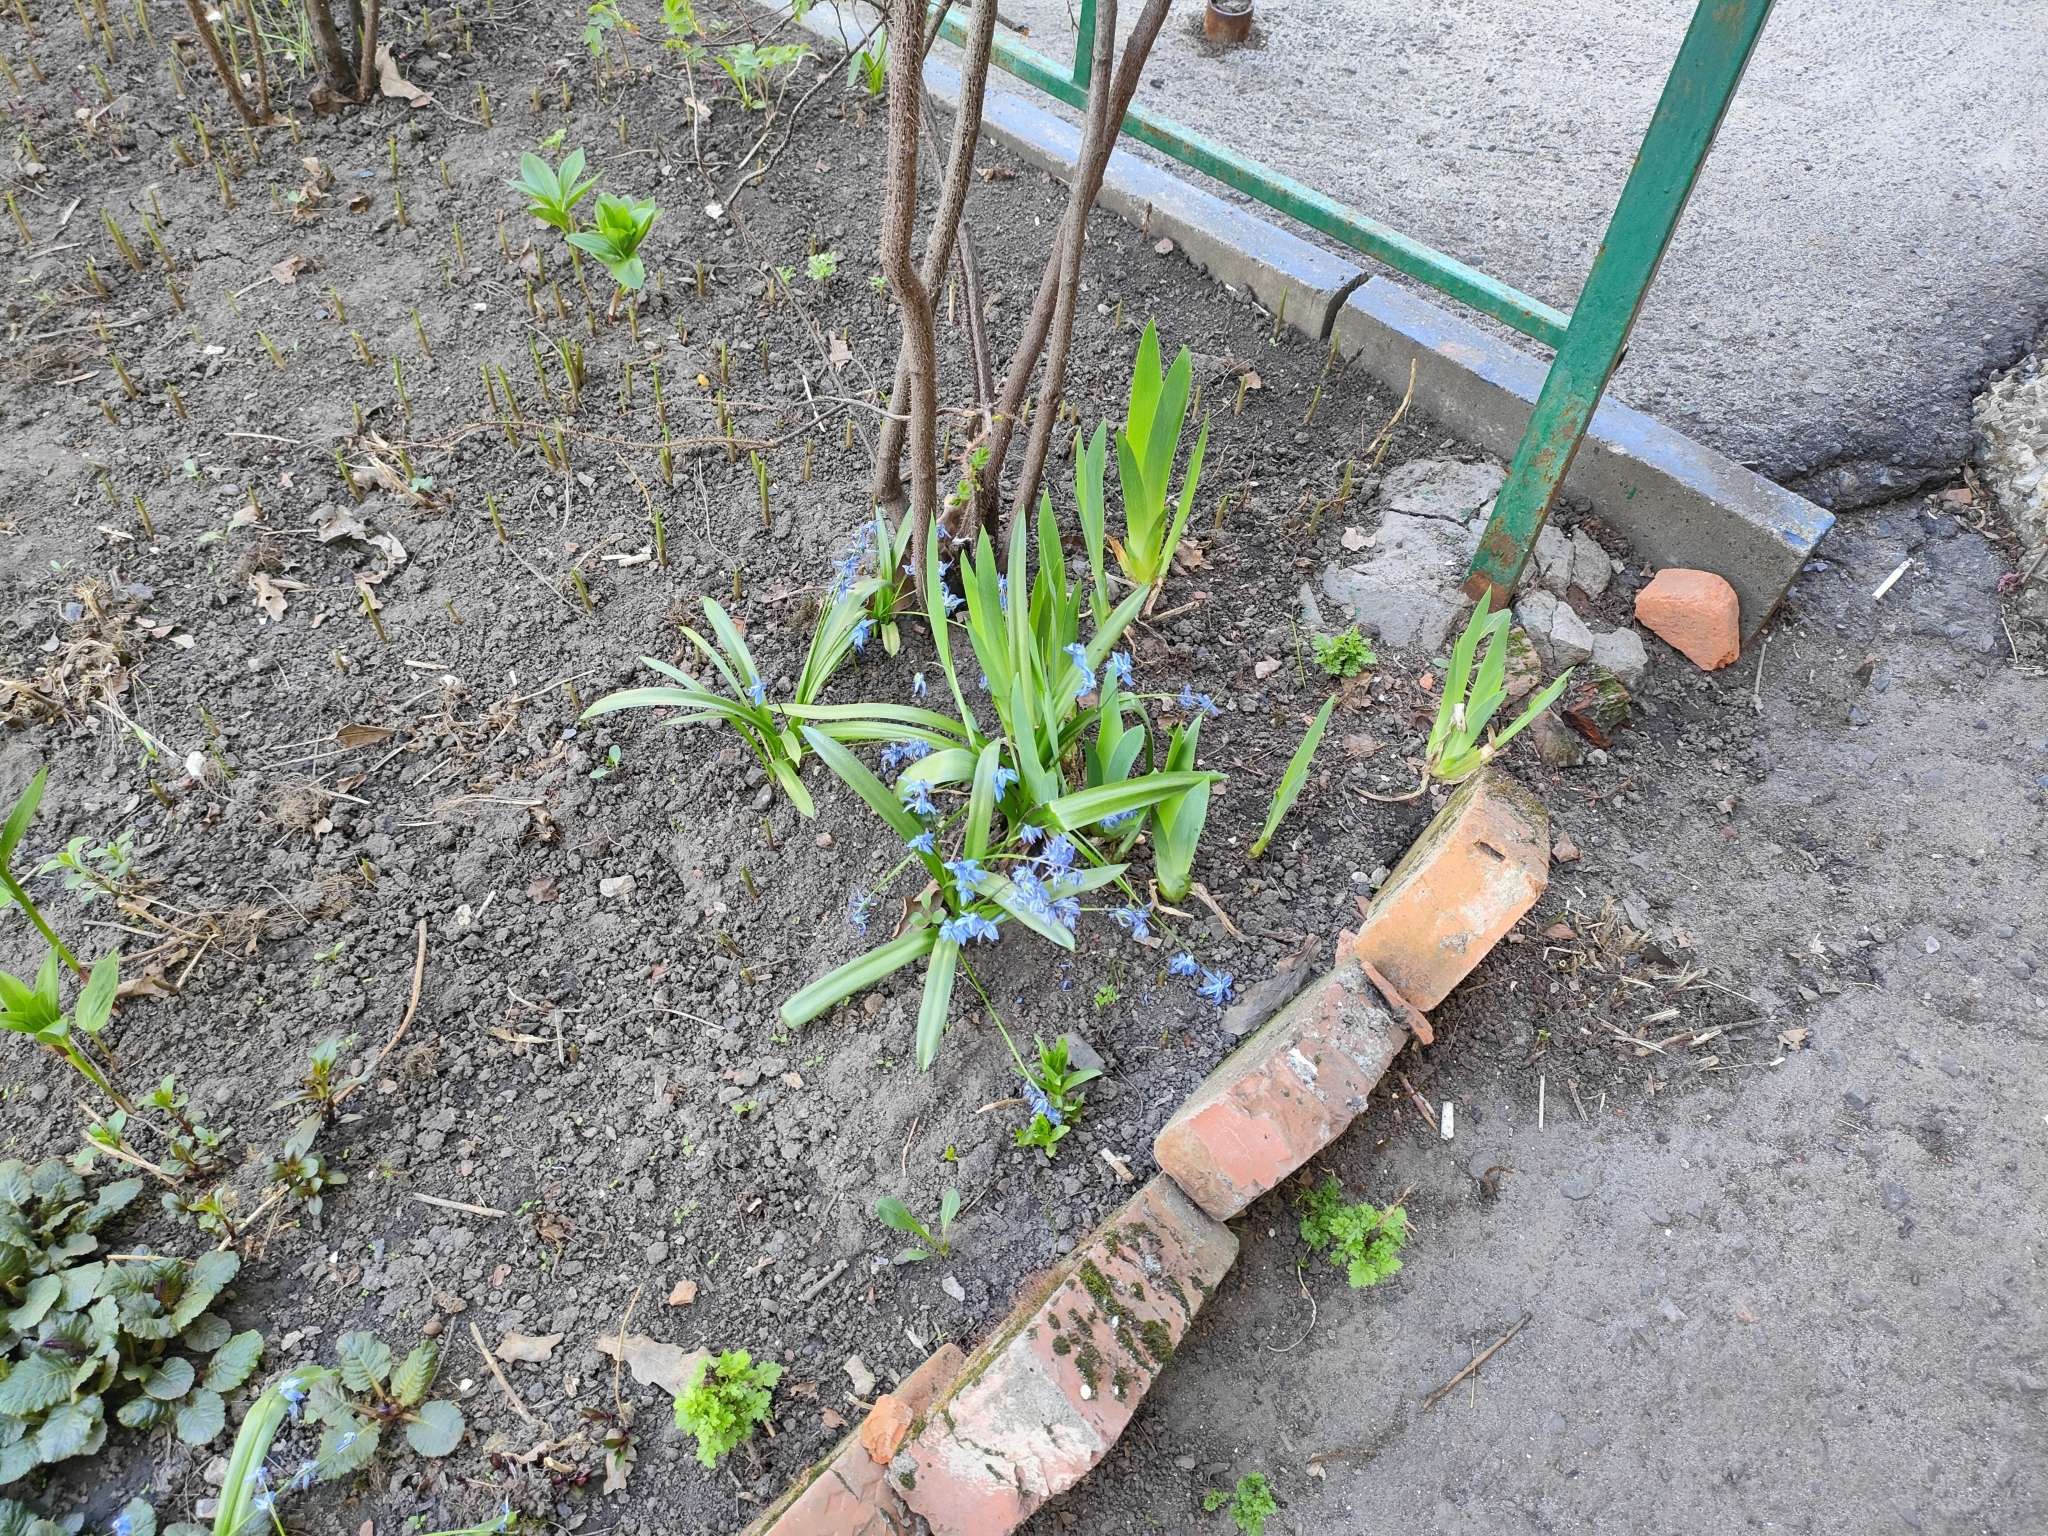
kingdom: Plantae
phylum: Tracheophyta
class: Liliopsida
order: Asparagales
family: Asparagaceae
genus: Scilla
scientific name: Scilla siberica
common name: Siberian squill
